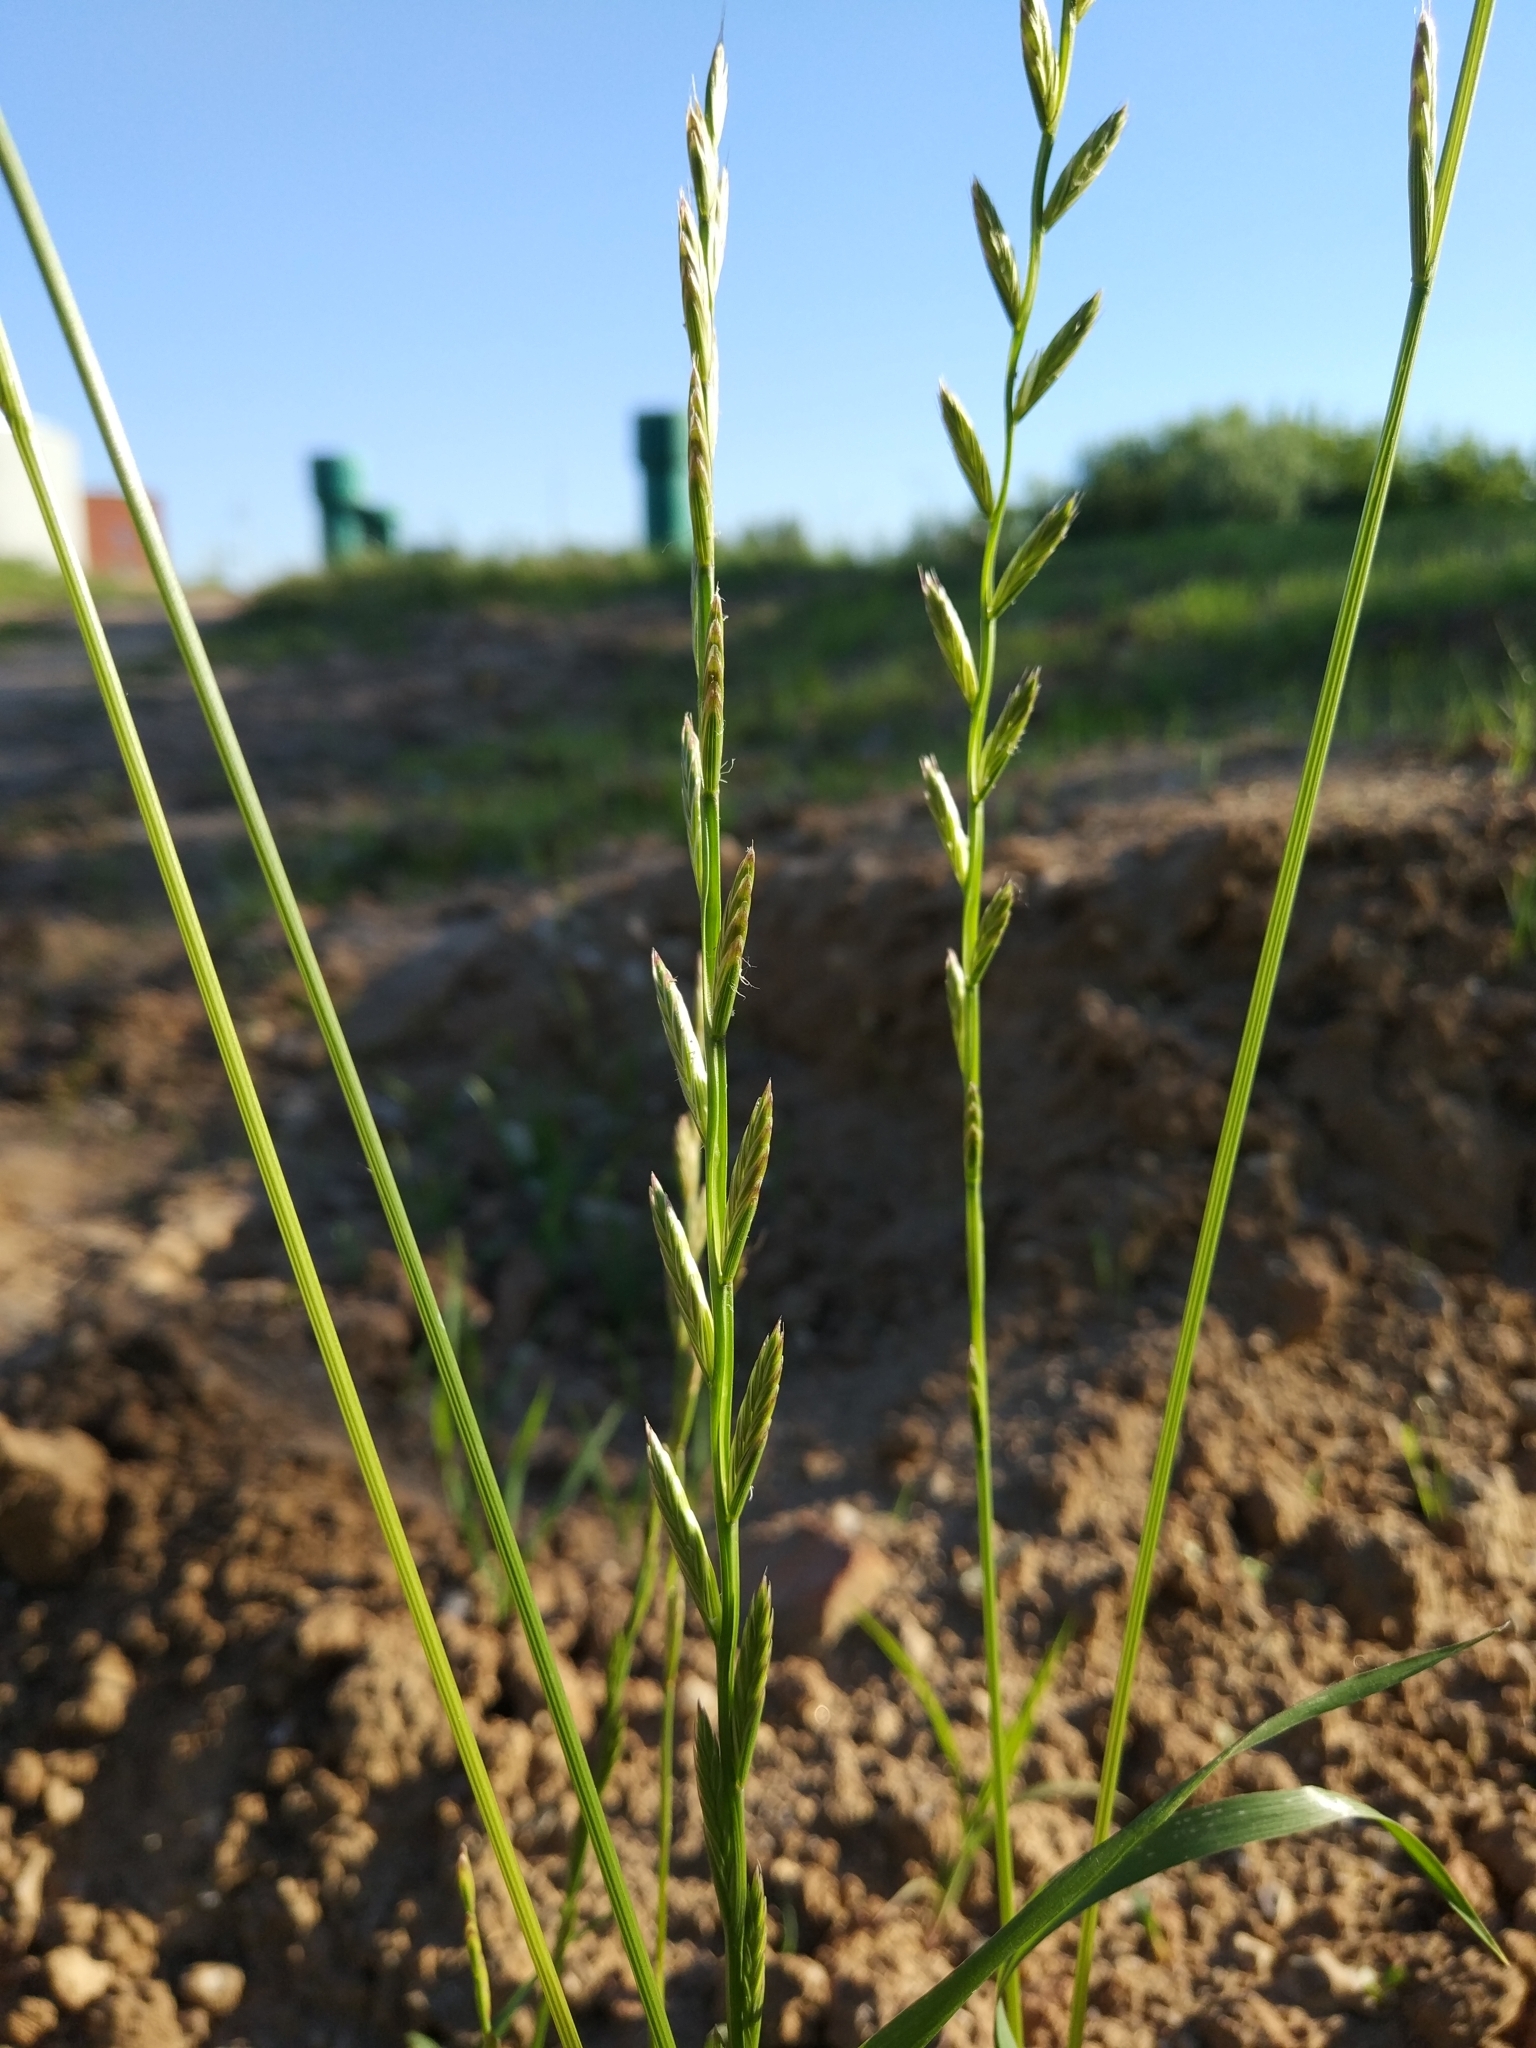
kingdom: Plantae
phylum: Tracheophyta
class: Liliopsida
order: Poales
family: Poaceae
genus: Lolium
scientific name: Lolium perenne
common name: Perennial ryegrass
